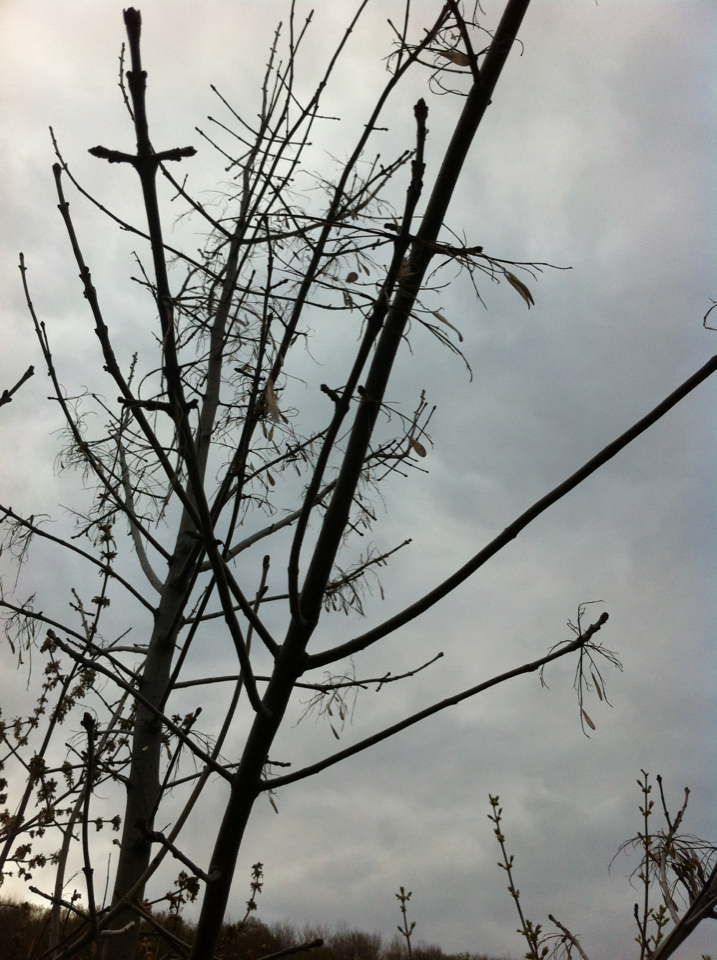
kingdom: Plantae
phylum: Tracheophyta
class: Magnoliopsida
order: Lamiales
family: Oleaceae
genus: Fraxinus
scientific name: Fraxinus americana
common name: White ash
